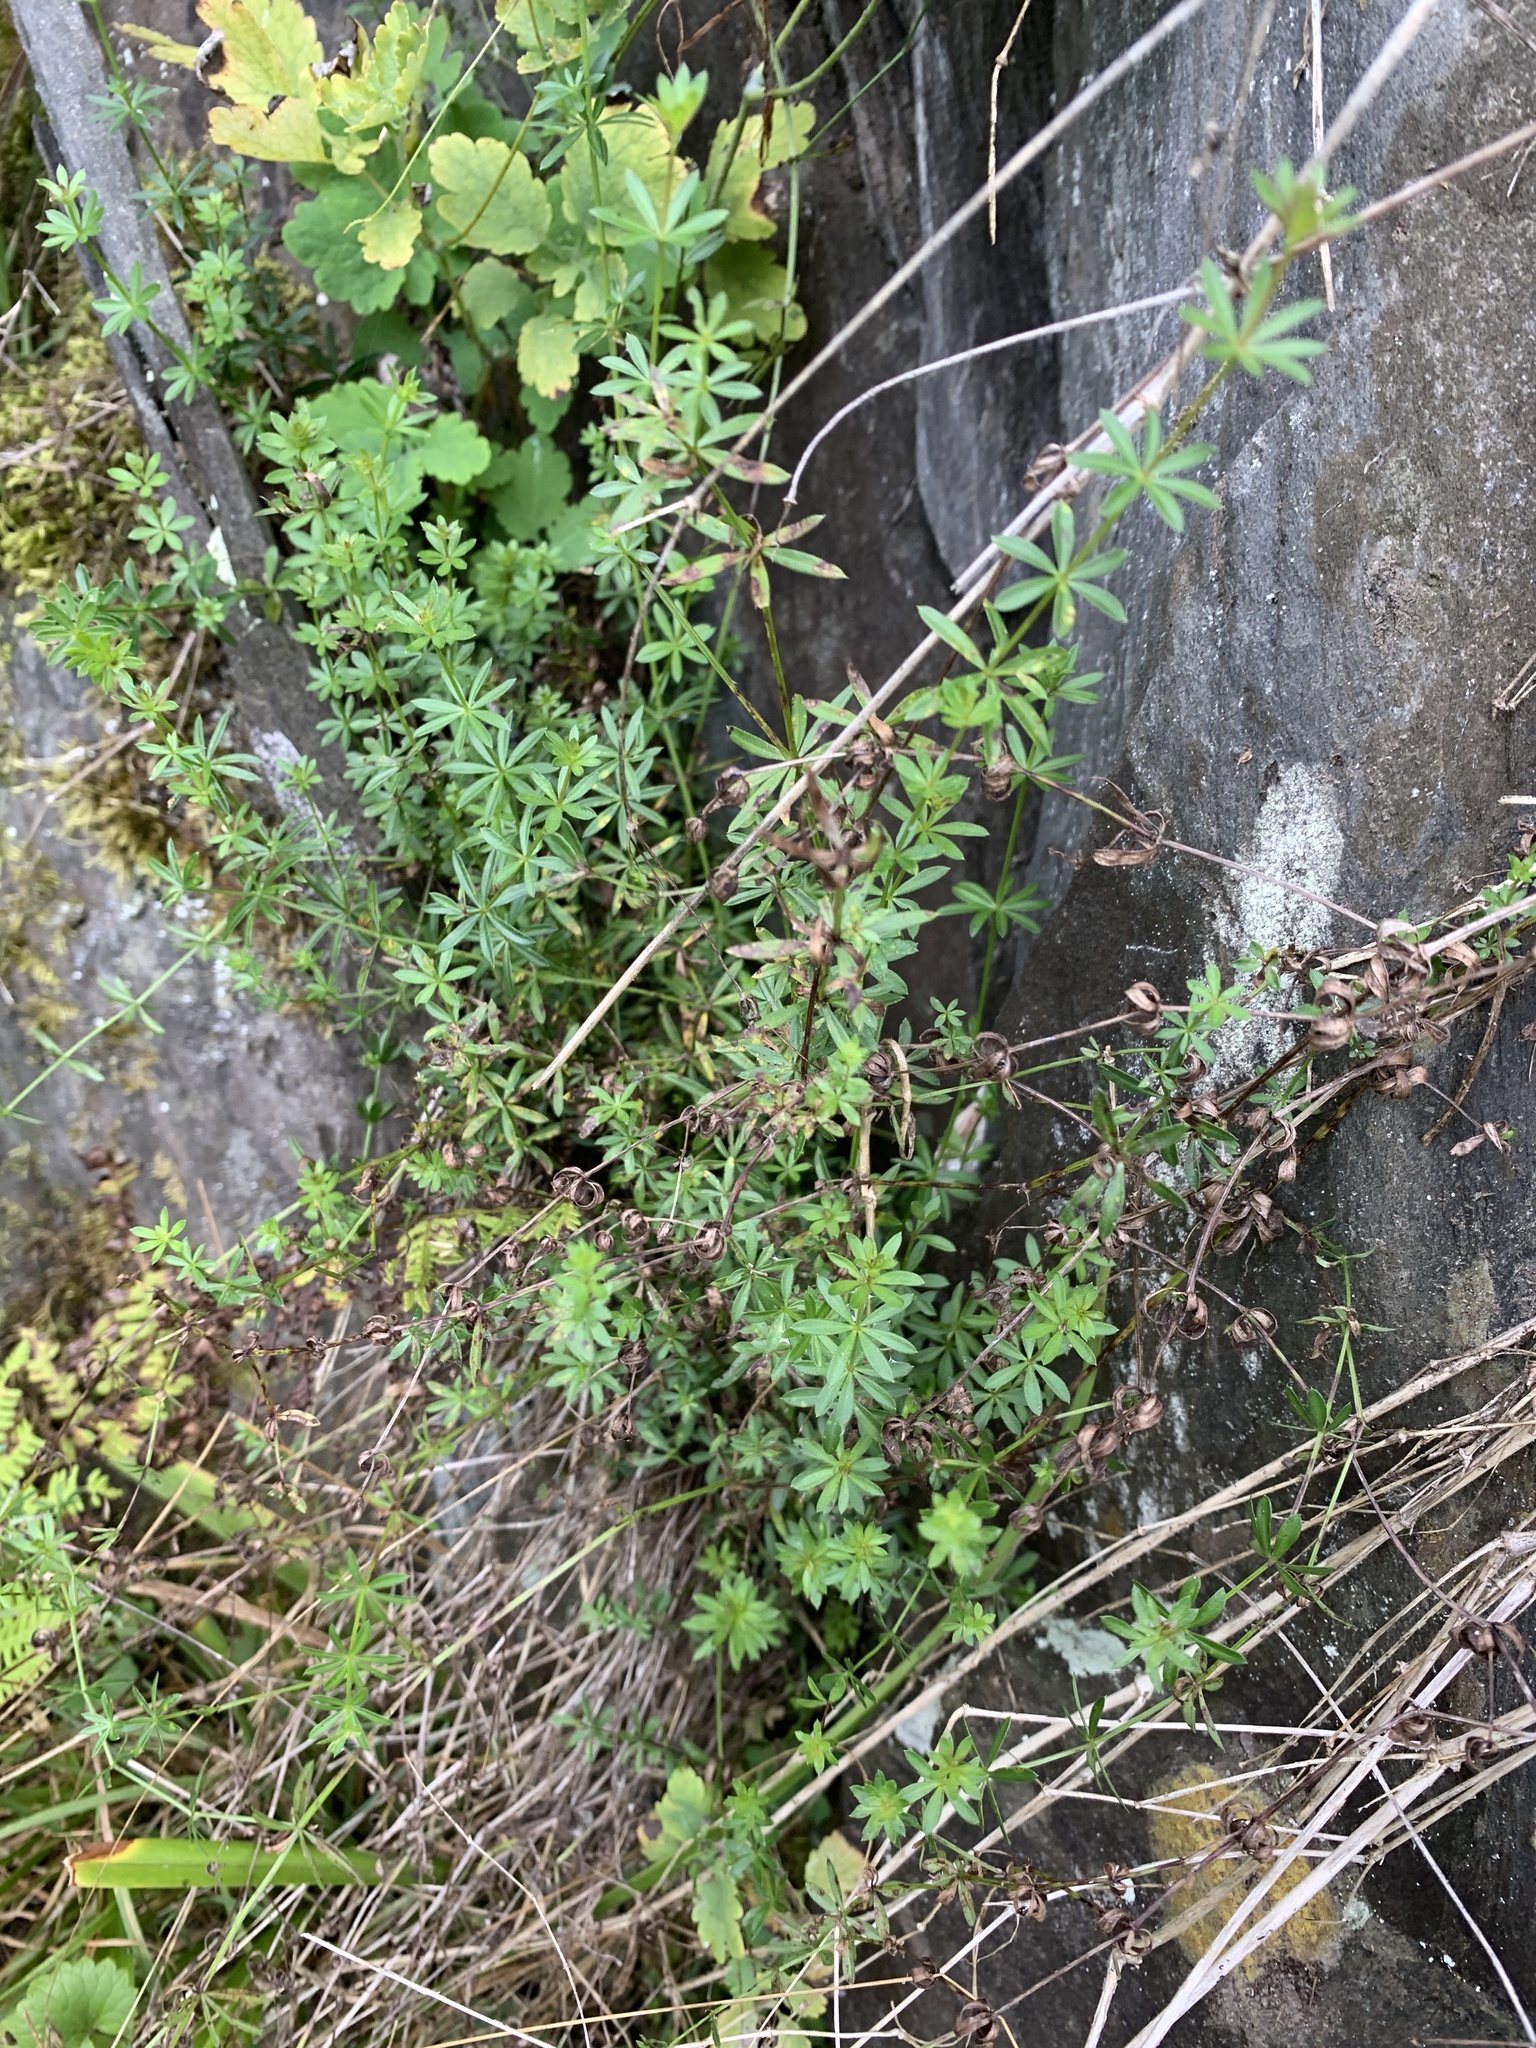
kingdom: Plantae
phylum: Tracheophyta
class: Magnoliopsida
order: Gentianales
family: Rubiaceae
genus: Galium
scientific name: Galium mollugo
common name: Hedge bedstraw
